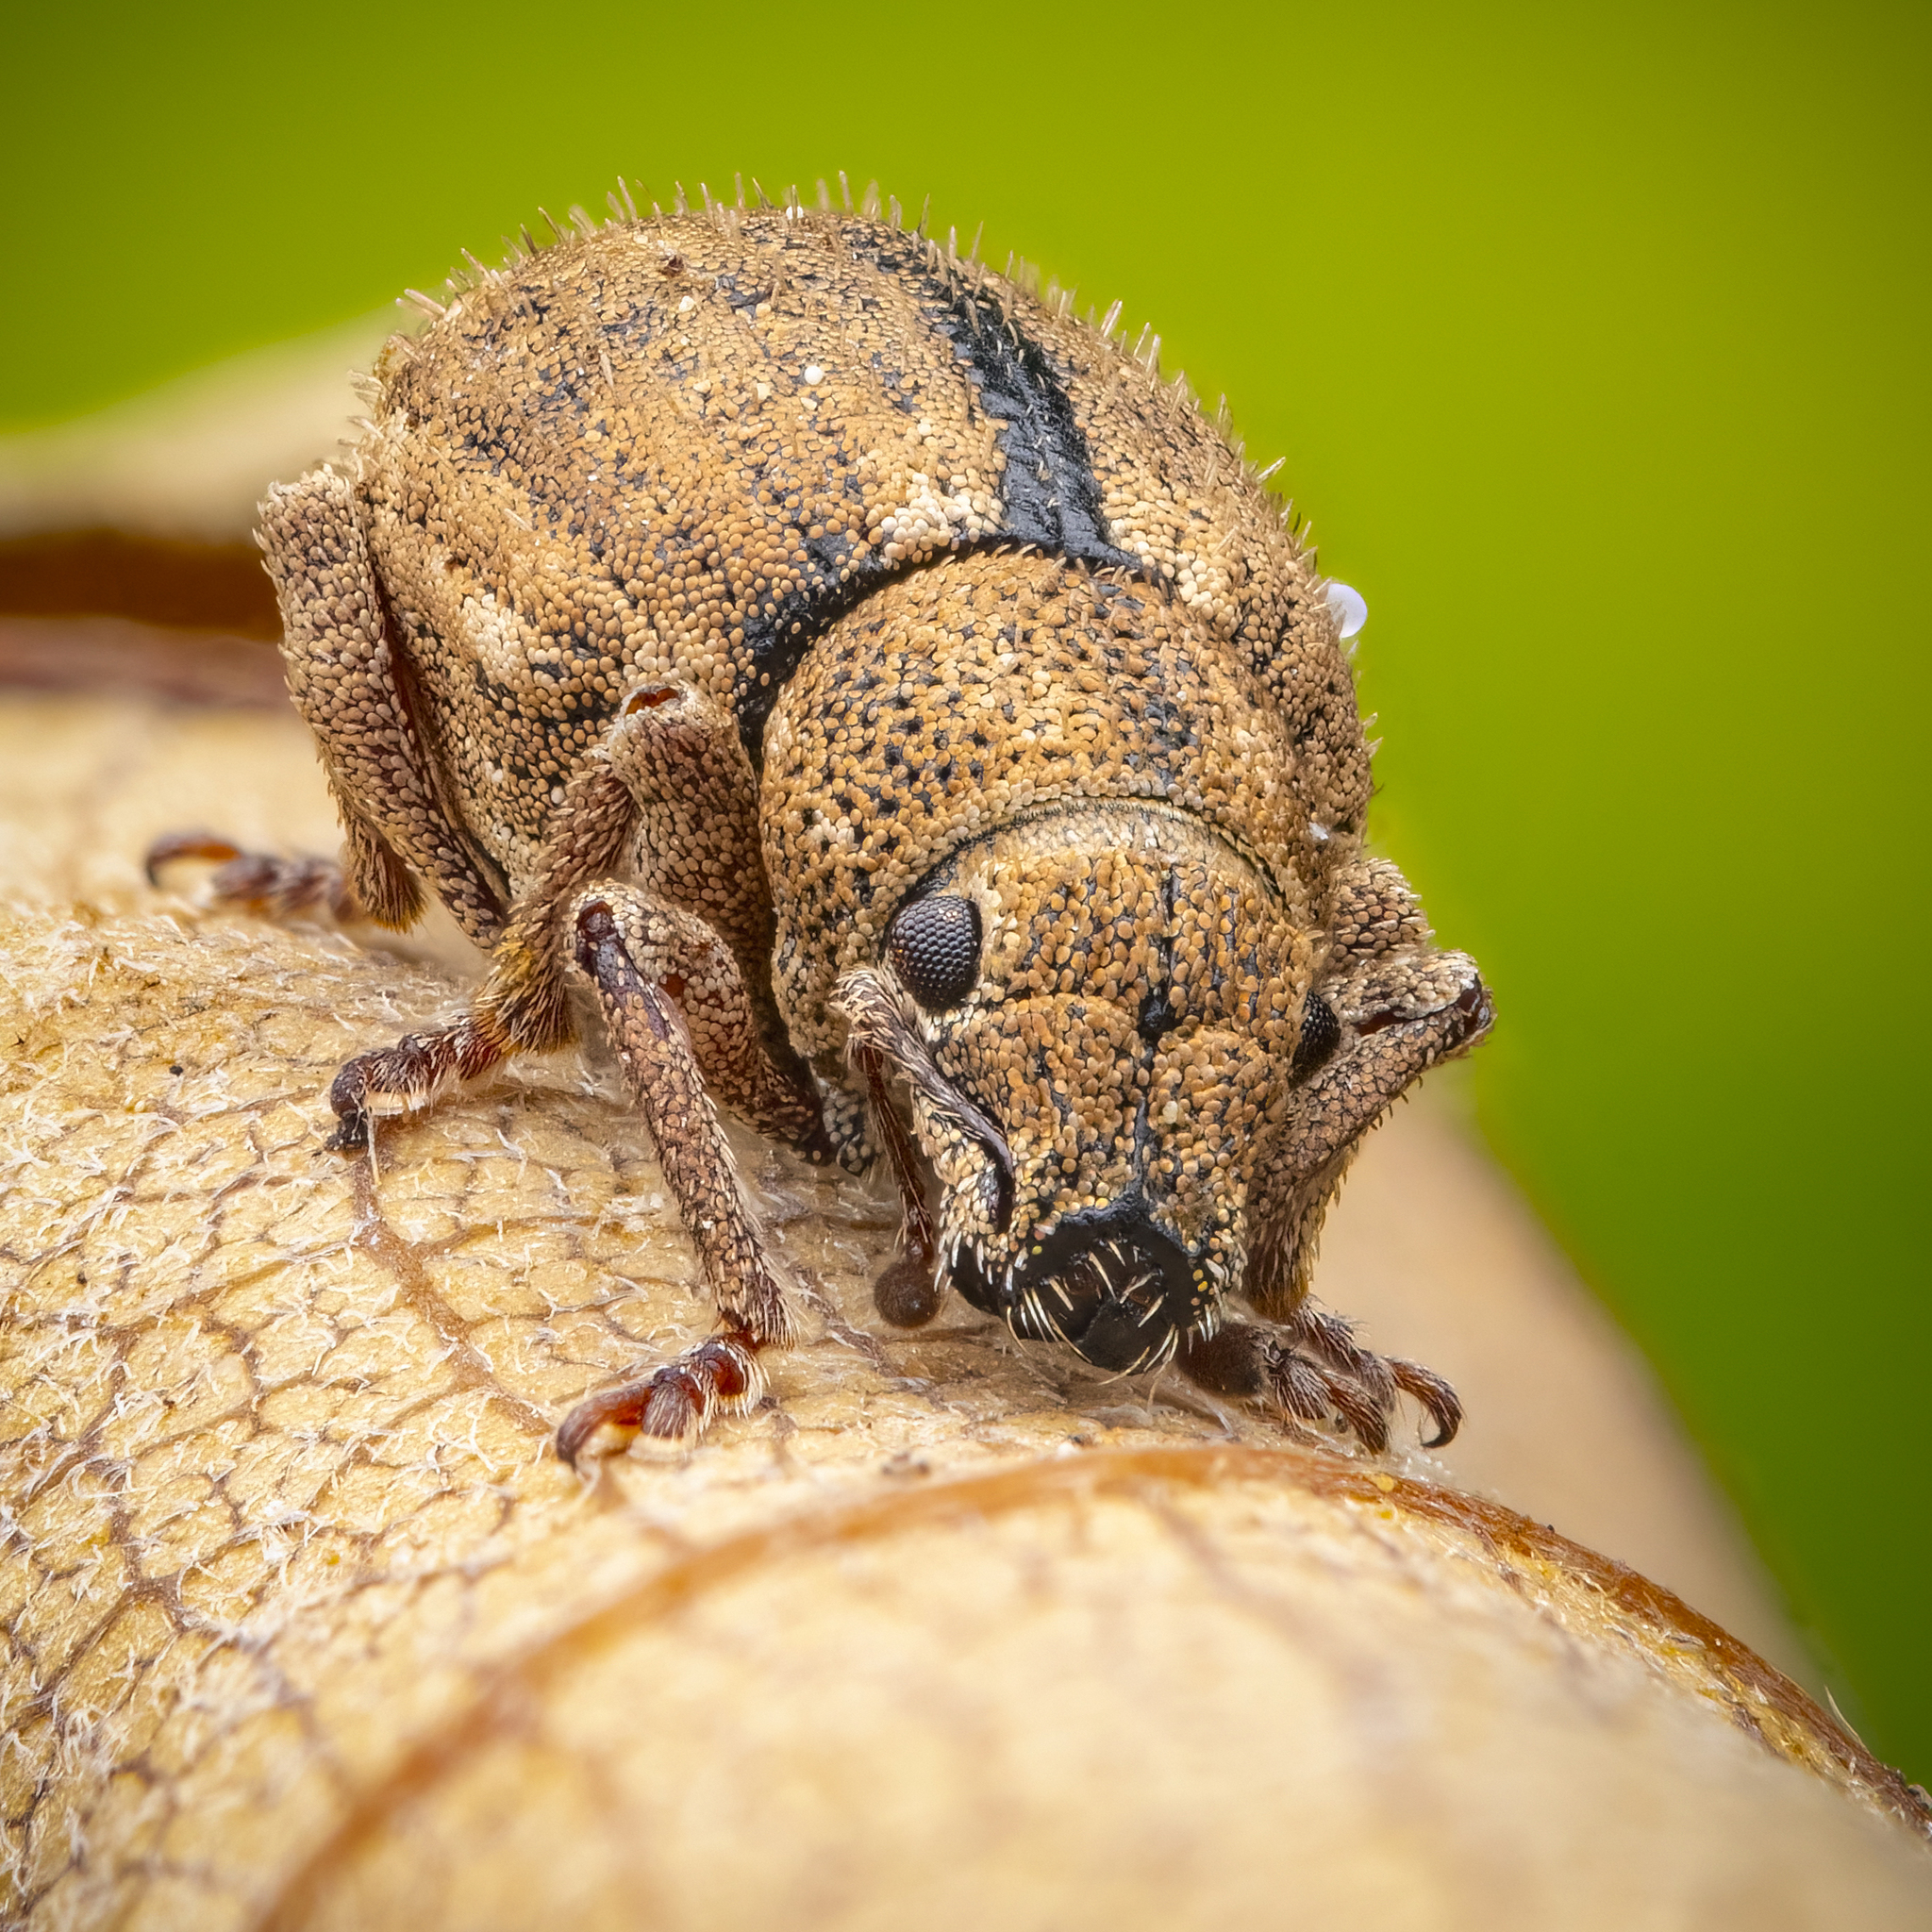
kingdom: Animalia
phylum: Arthropoda
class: Insecta
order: Coleoptera
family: Curculionidae
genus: Strophosoma
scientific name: Strophosoma melanogrammum
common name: Weevil
